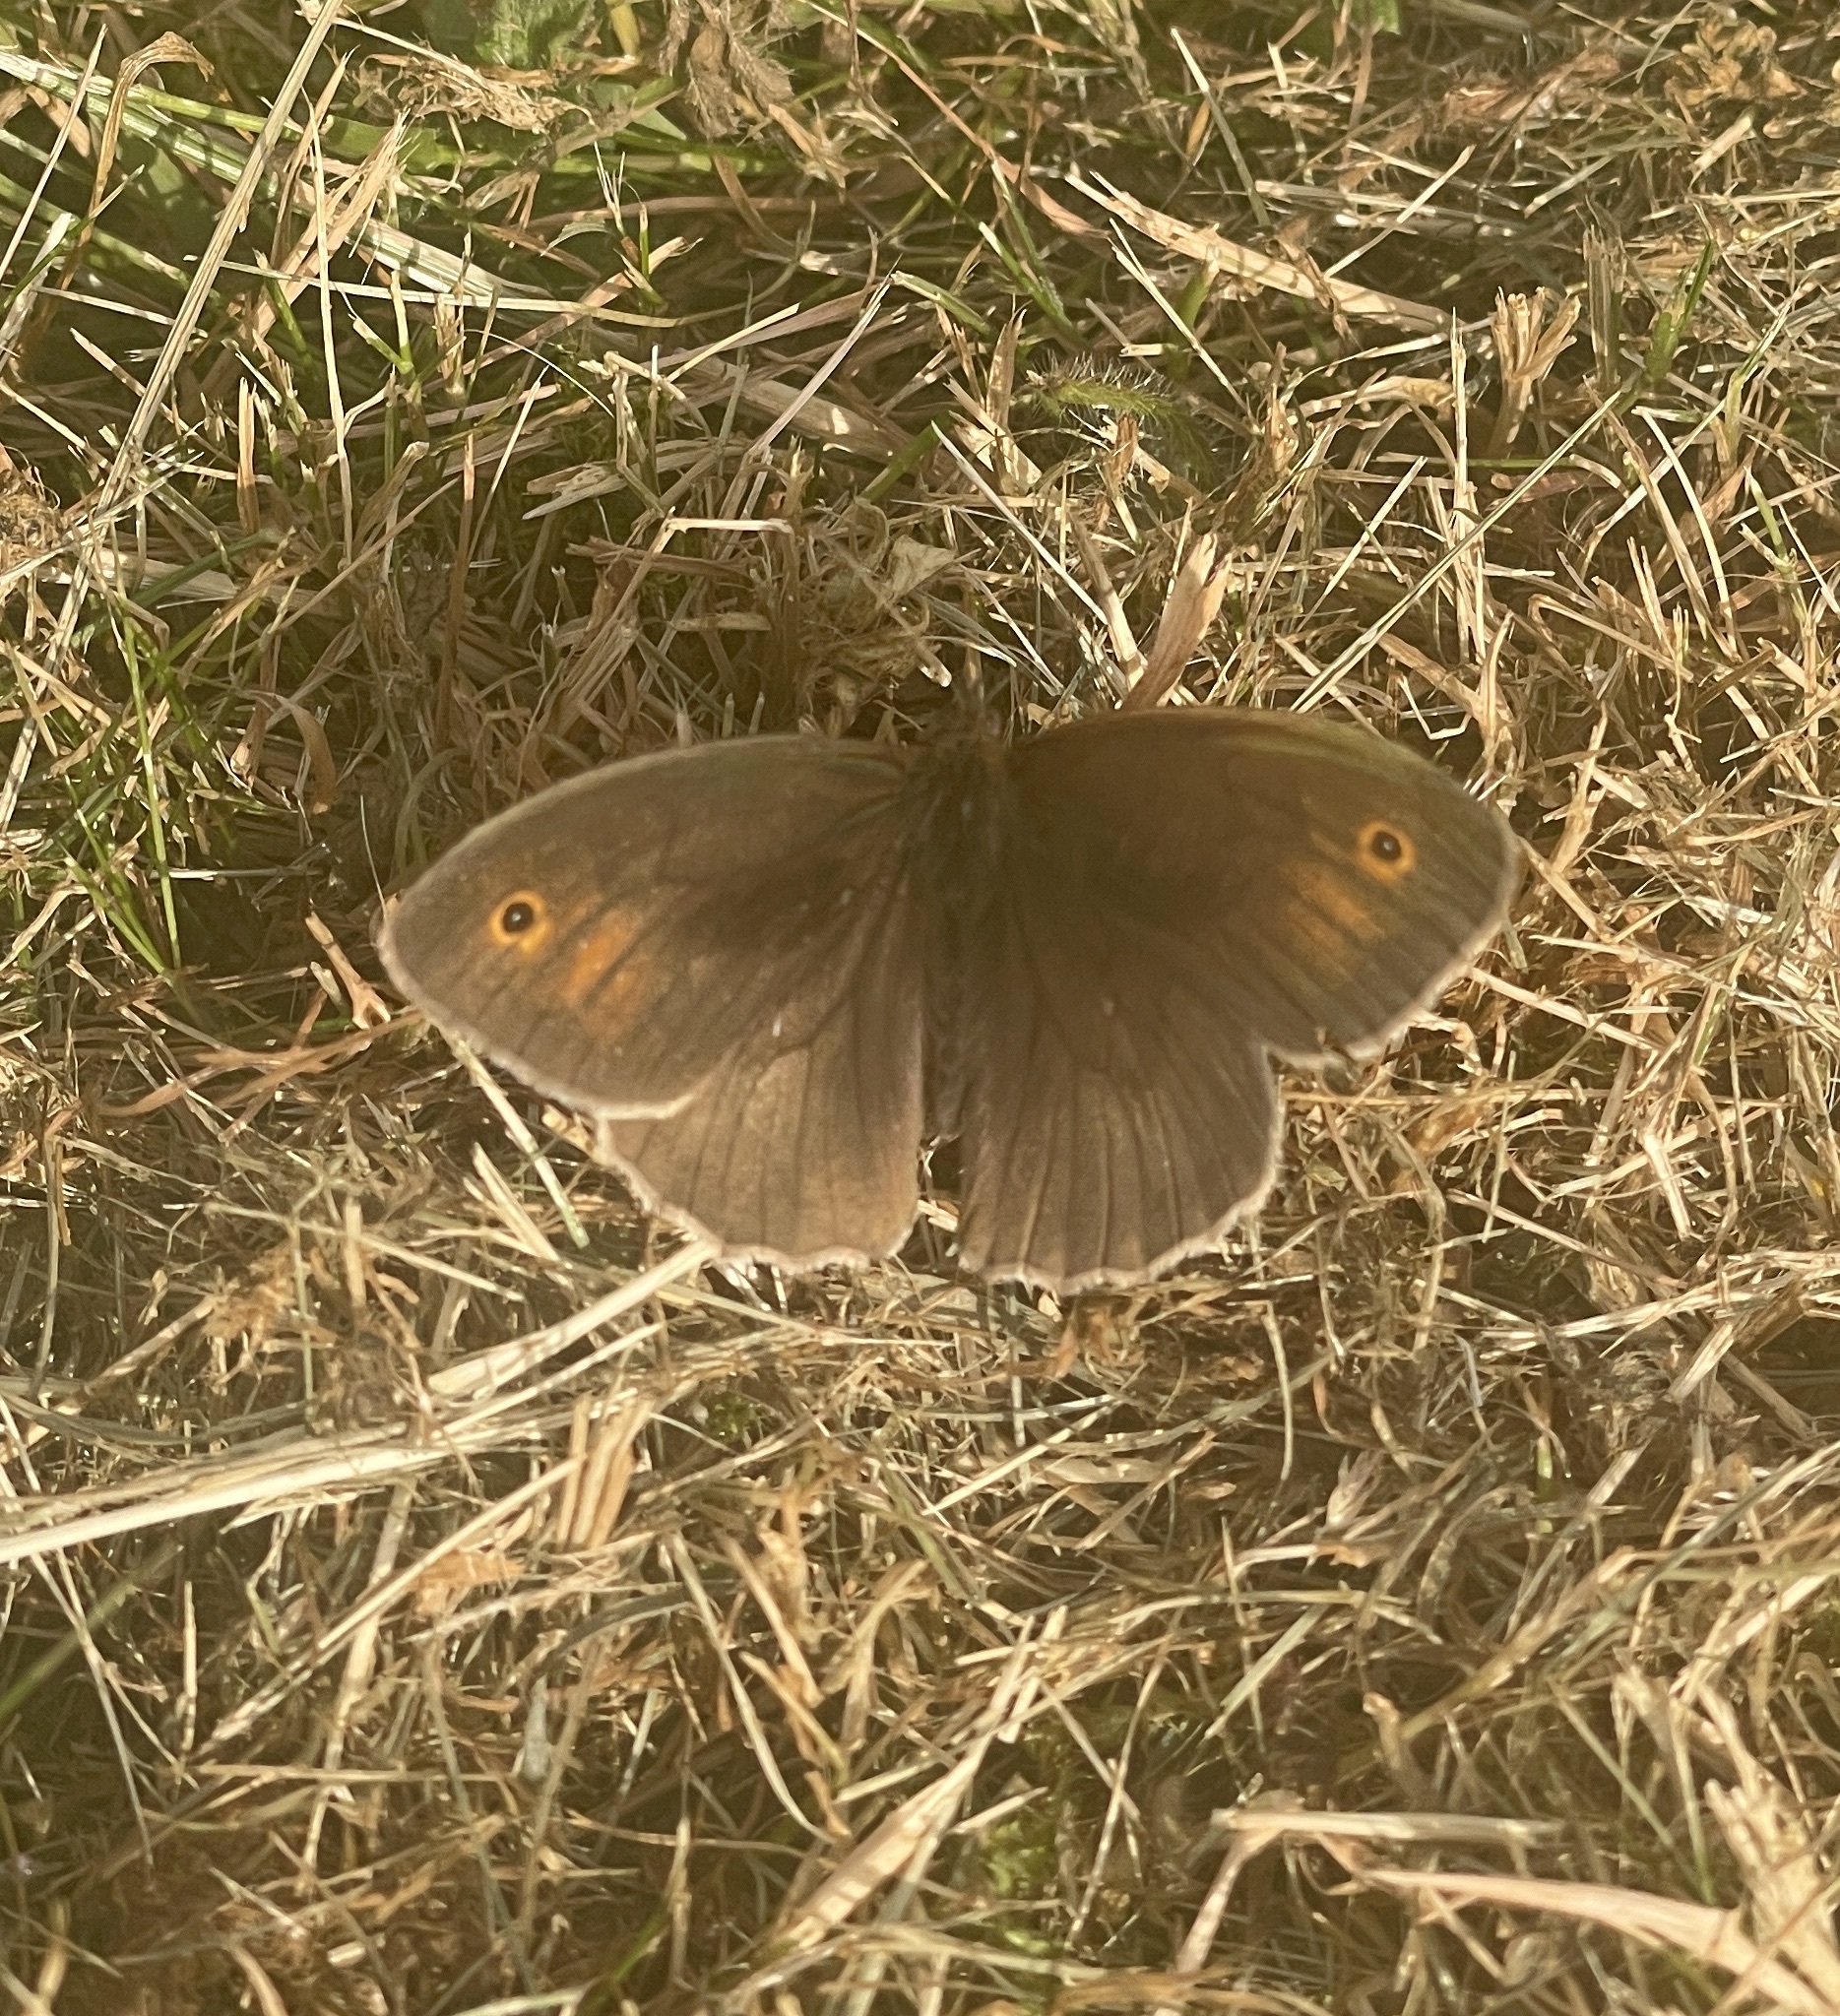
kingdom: Animalia
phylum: Arthropoda
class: Insecta
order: Lepidoptera
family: Nymphalidae
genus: Maniola
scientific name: Maniola jurtina
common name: Meadow brown
